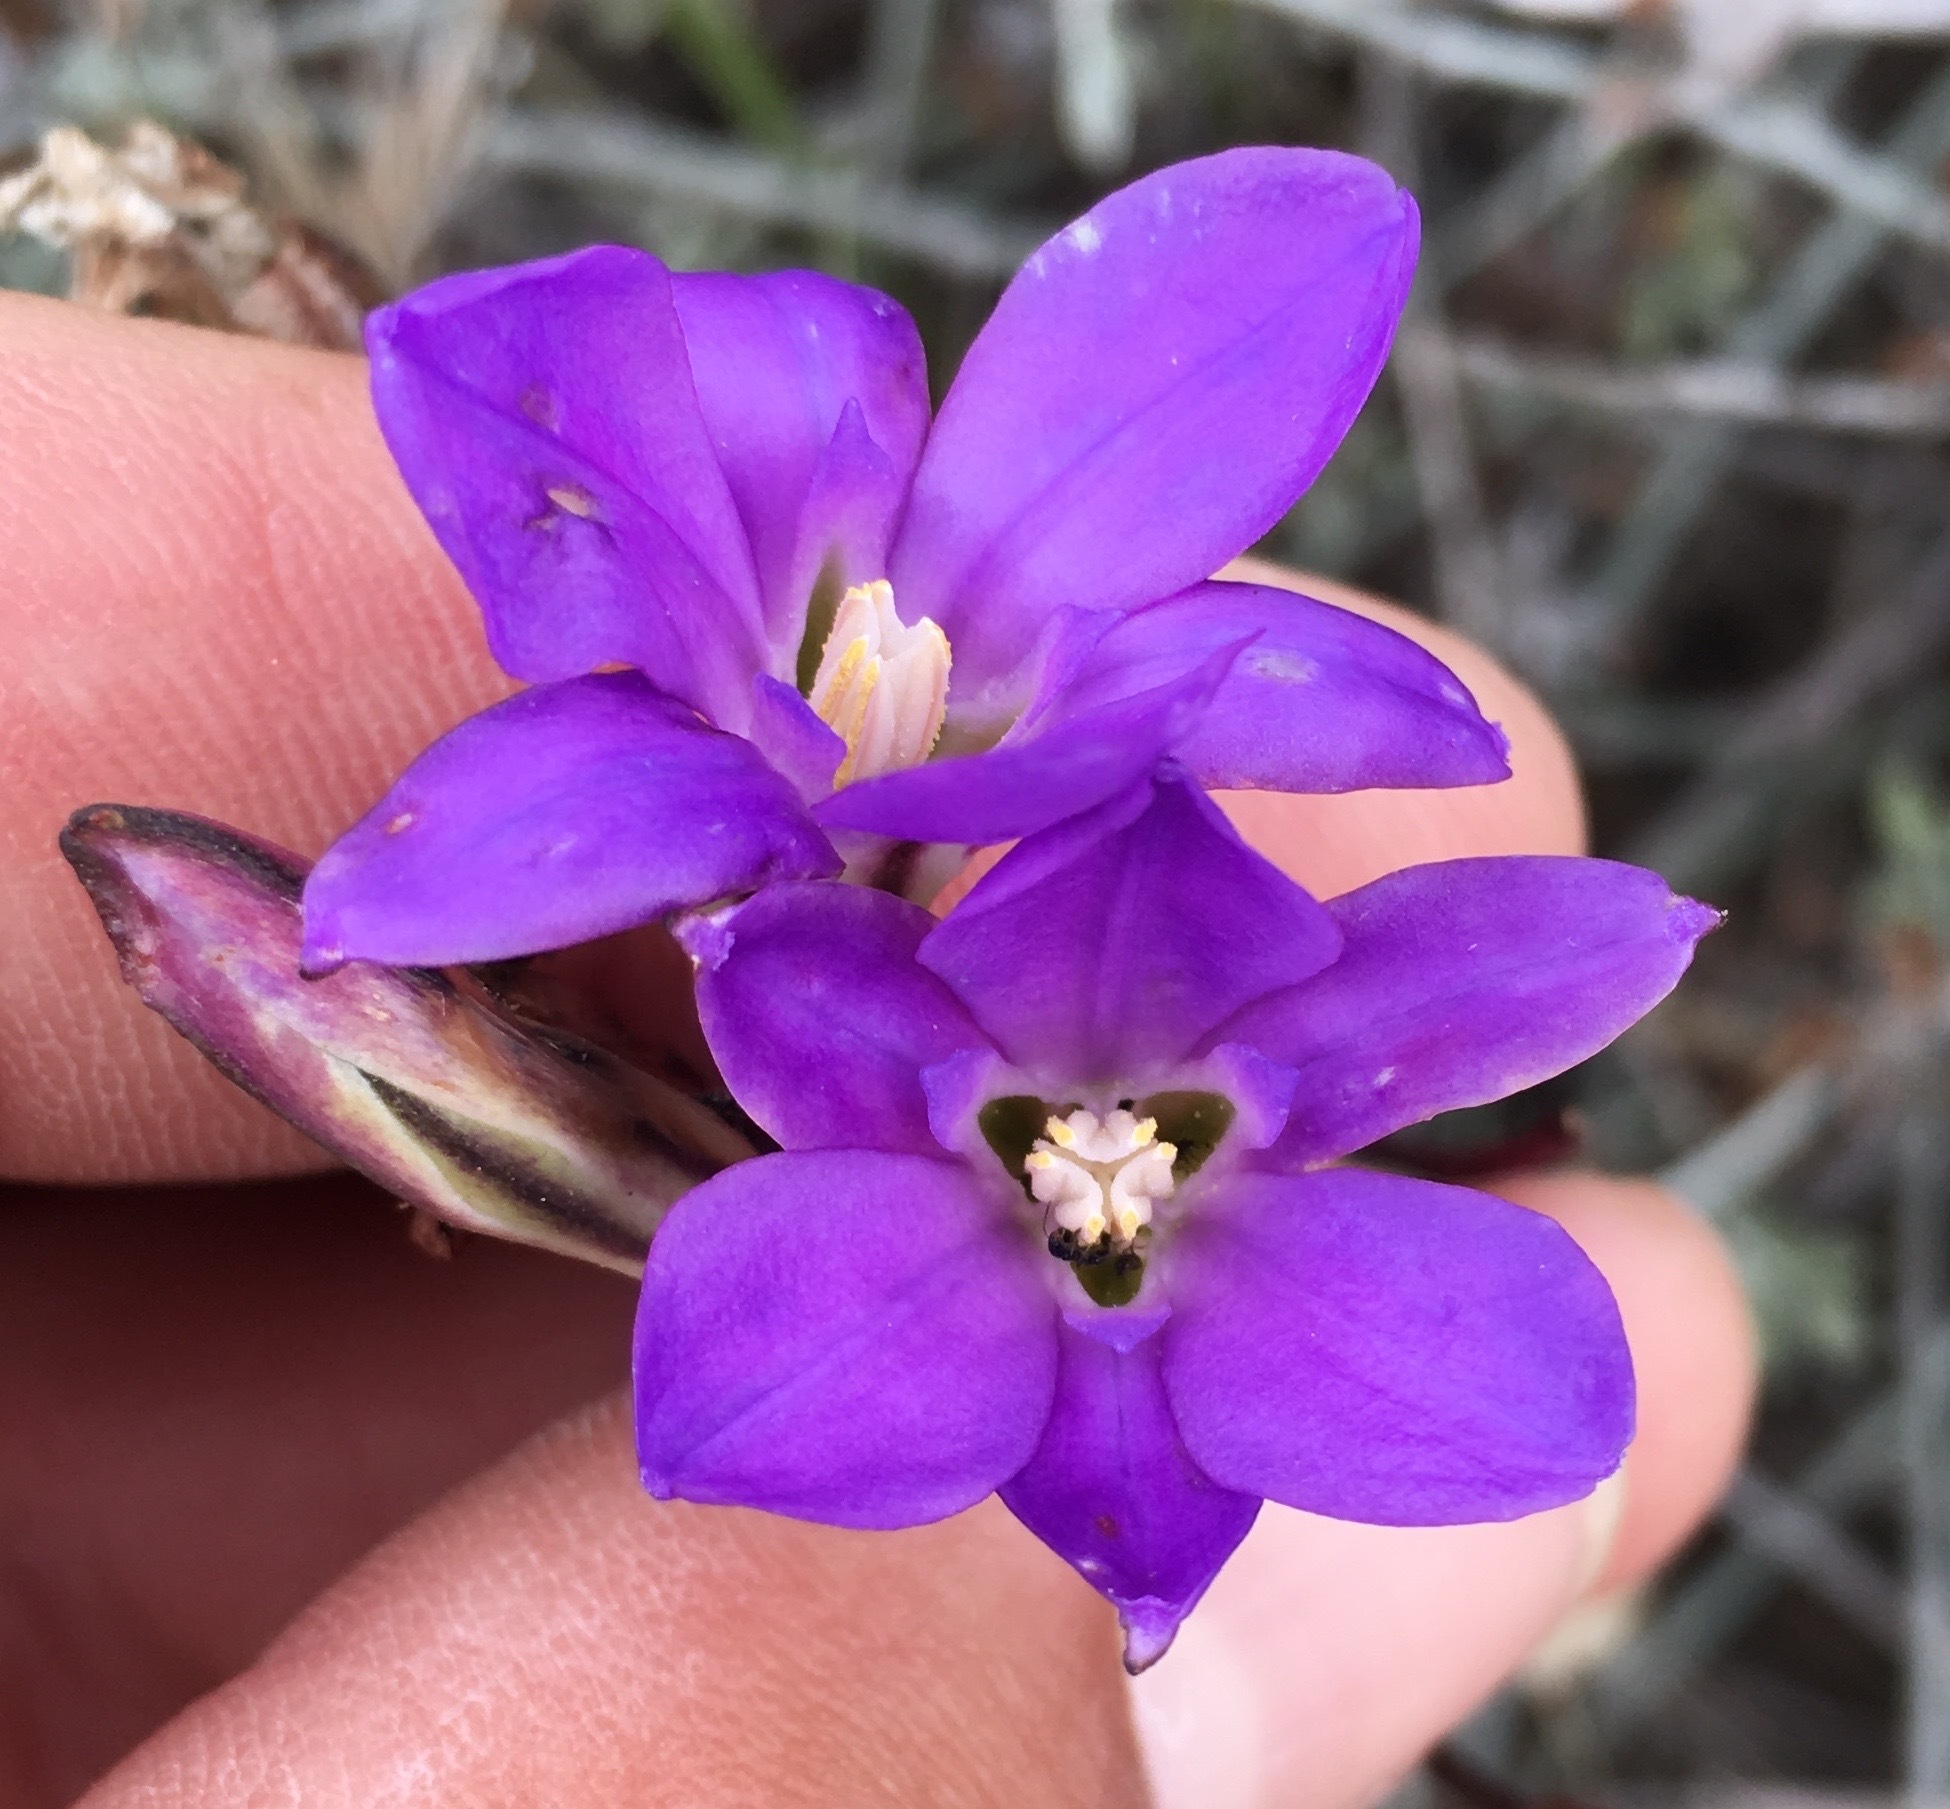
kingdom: Plantae
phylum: Tracheophyta
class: Liliopsida
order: Asparagales
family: Asparagaceae
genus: Brodiaea
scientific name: Brodiaea kinkiensis
